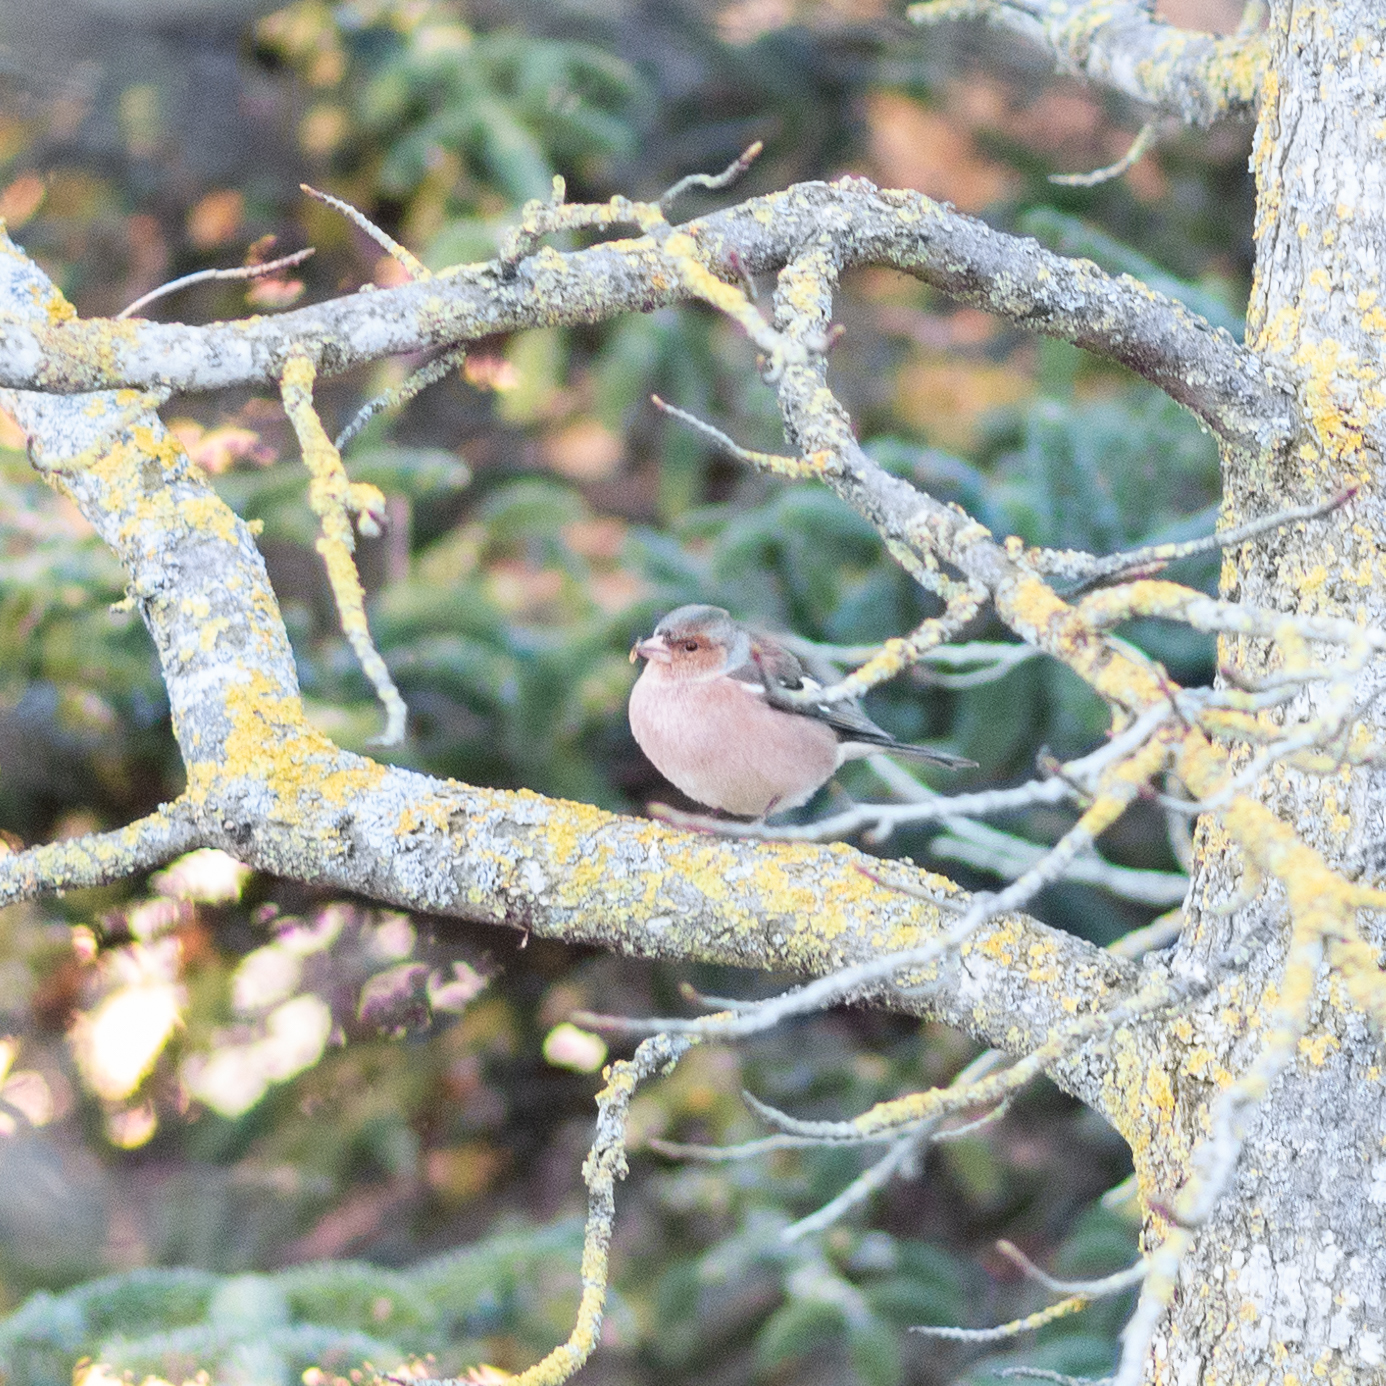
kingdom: Animalia
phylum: Chordata
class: Aves
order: Passeriformes
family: Fringillidae
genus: Fringilla
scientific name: Fringilla coelebs
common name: Common chaffinch
